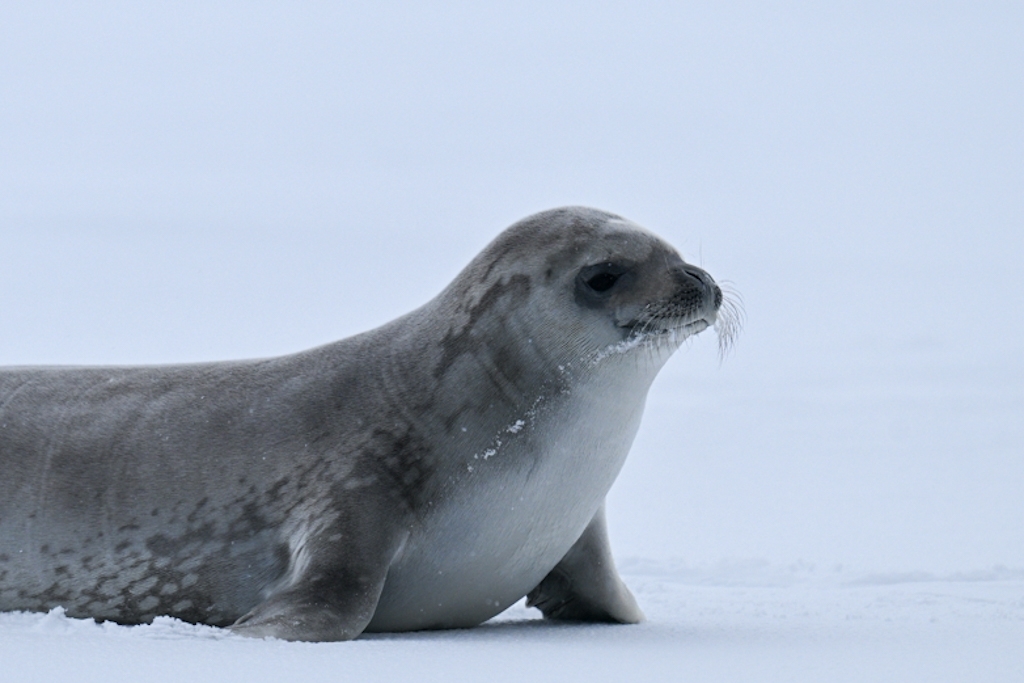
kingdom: Animalia
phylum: Chordata
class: Mammalia
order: Carnivora
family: Phocidae
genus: Lobodon
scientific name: Lobodon carcinophaga
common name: Crabeater seal
